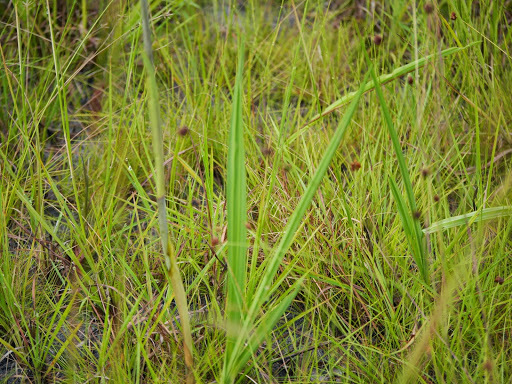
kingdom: Plantae
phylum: Tracheophyta
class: Liliopsida
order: Asparagales
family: Orchidaceae
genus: Eulophia
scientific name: Eulophia cucullata
